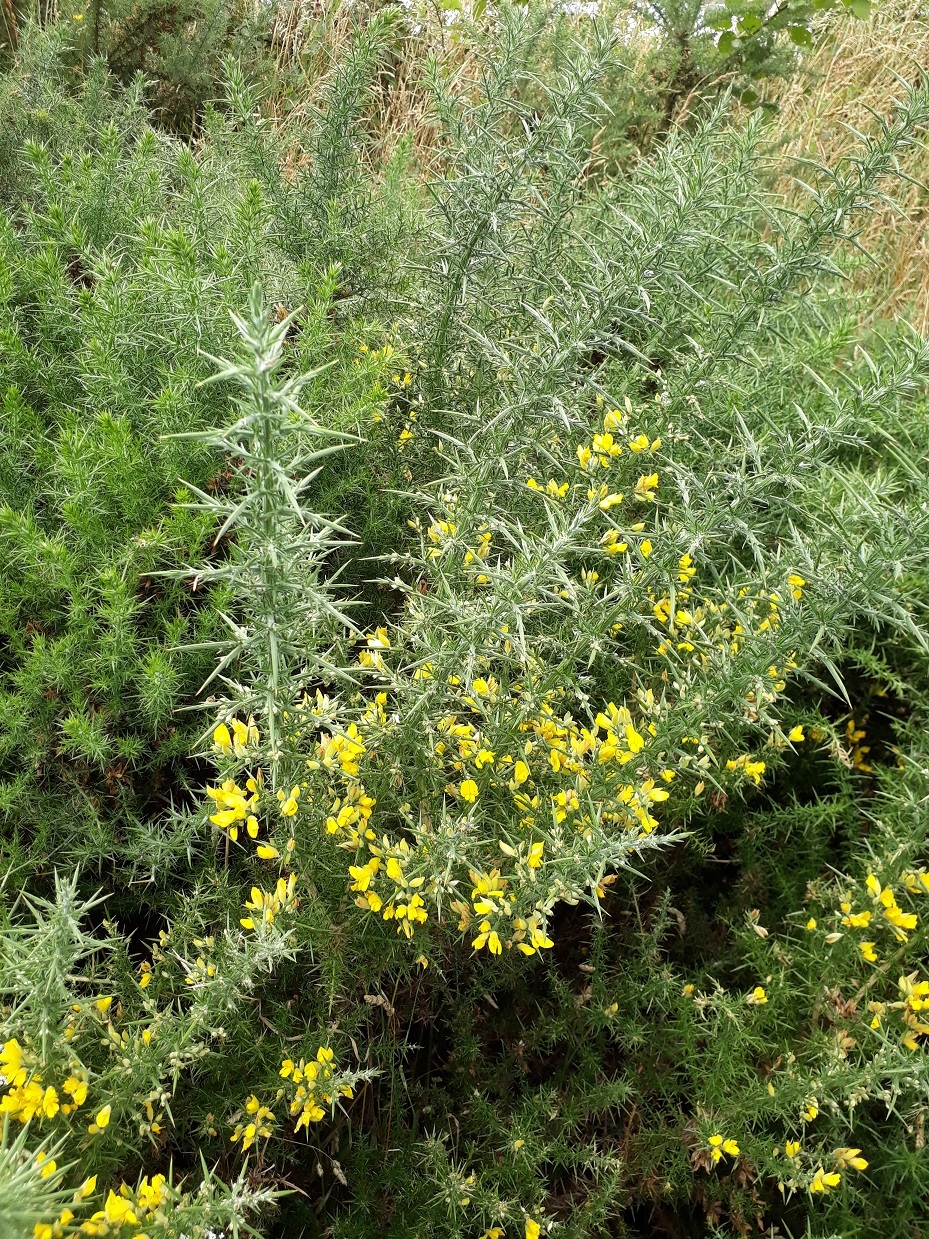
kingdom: Plantae
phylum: Tracheophyta
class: Magnoliopsida
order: Fabales
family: Fabaceae
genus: Ulex
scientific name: Ulex europaeus
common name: Common gorse
